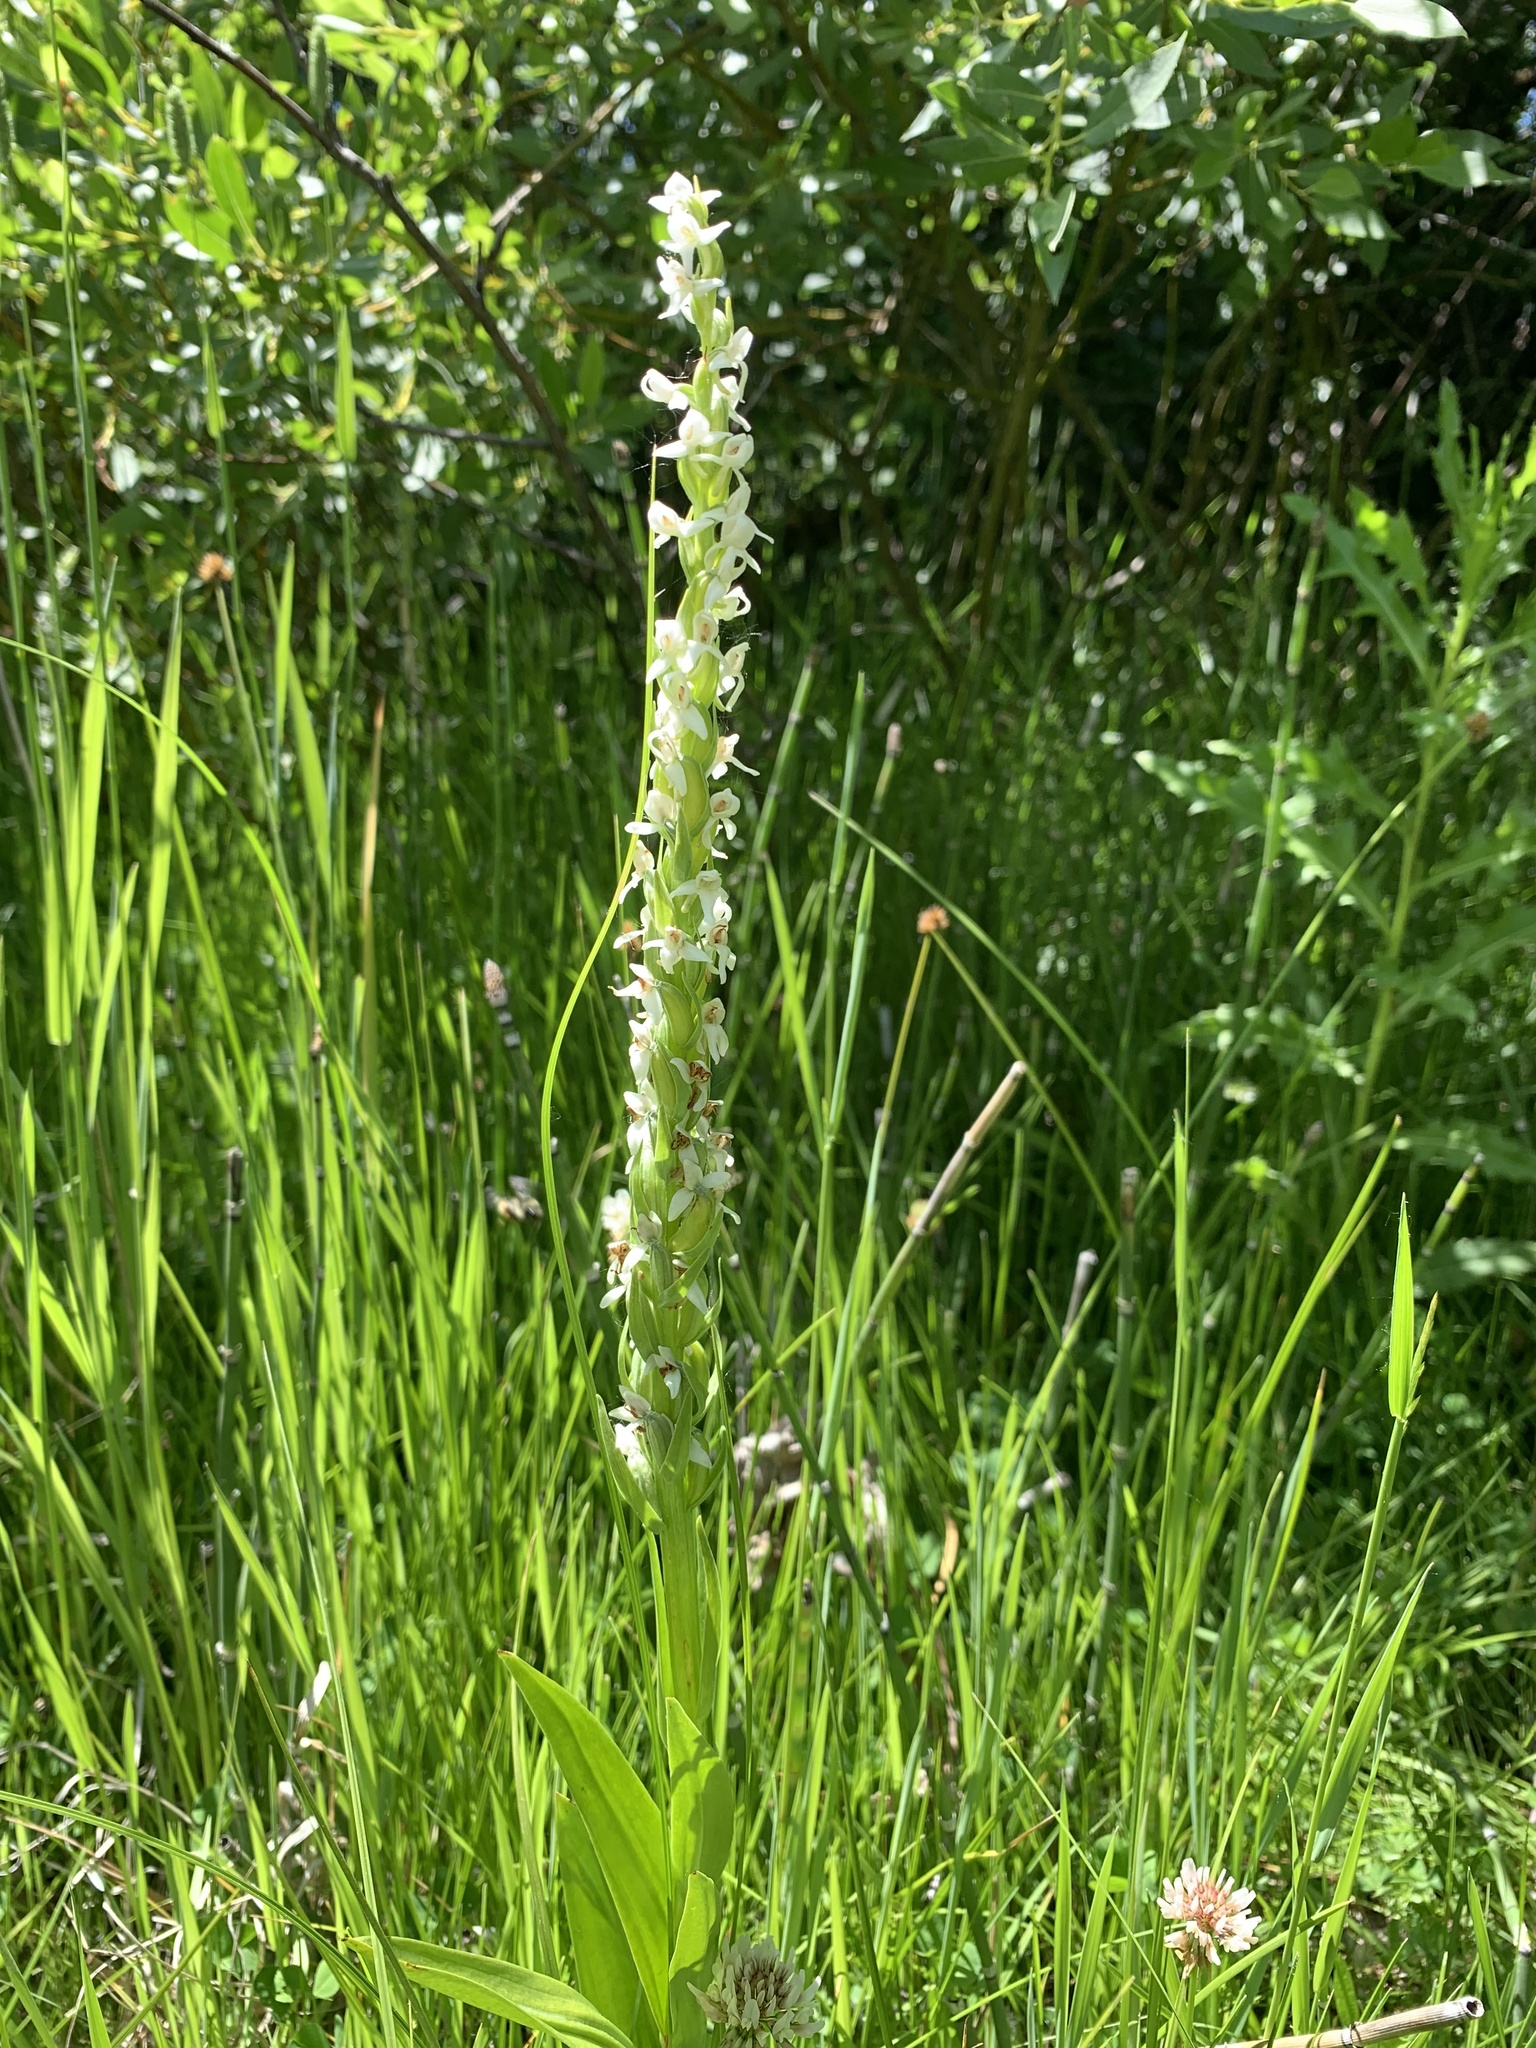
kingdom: Plantae
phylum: Tracheophyta
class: Liliopsida
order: Asparagales
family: Orchidaceae
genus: Platanthera
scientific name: Platanthera dilatata
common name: Bog candles
